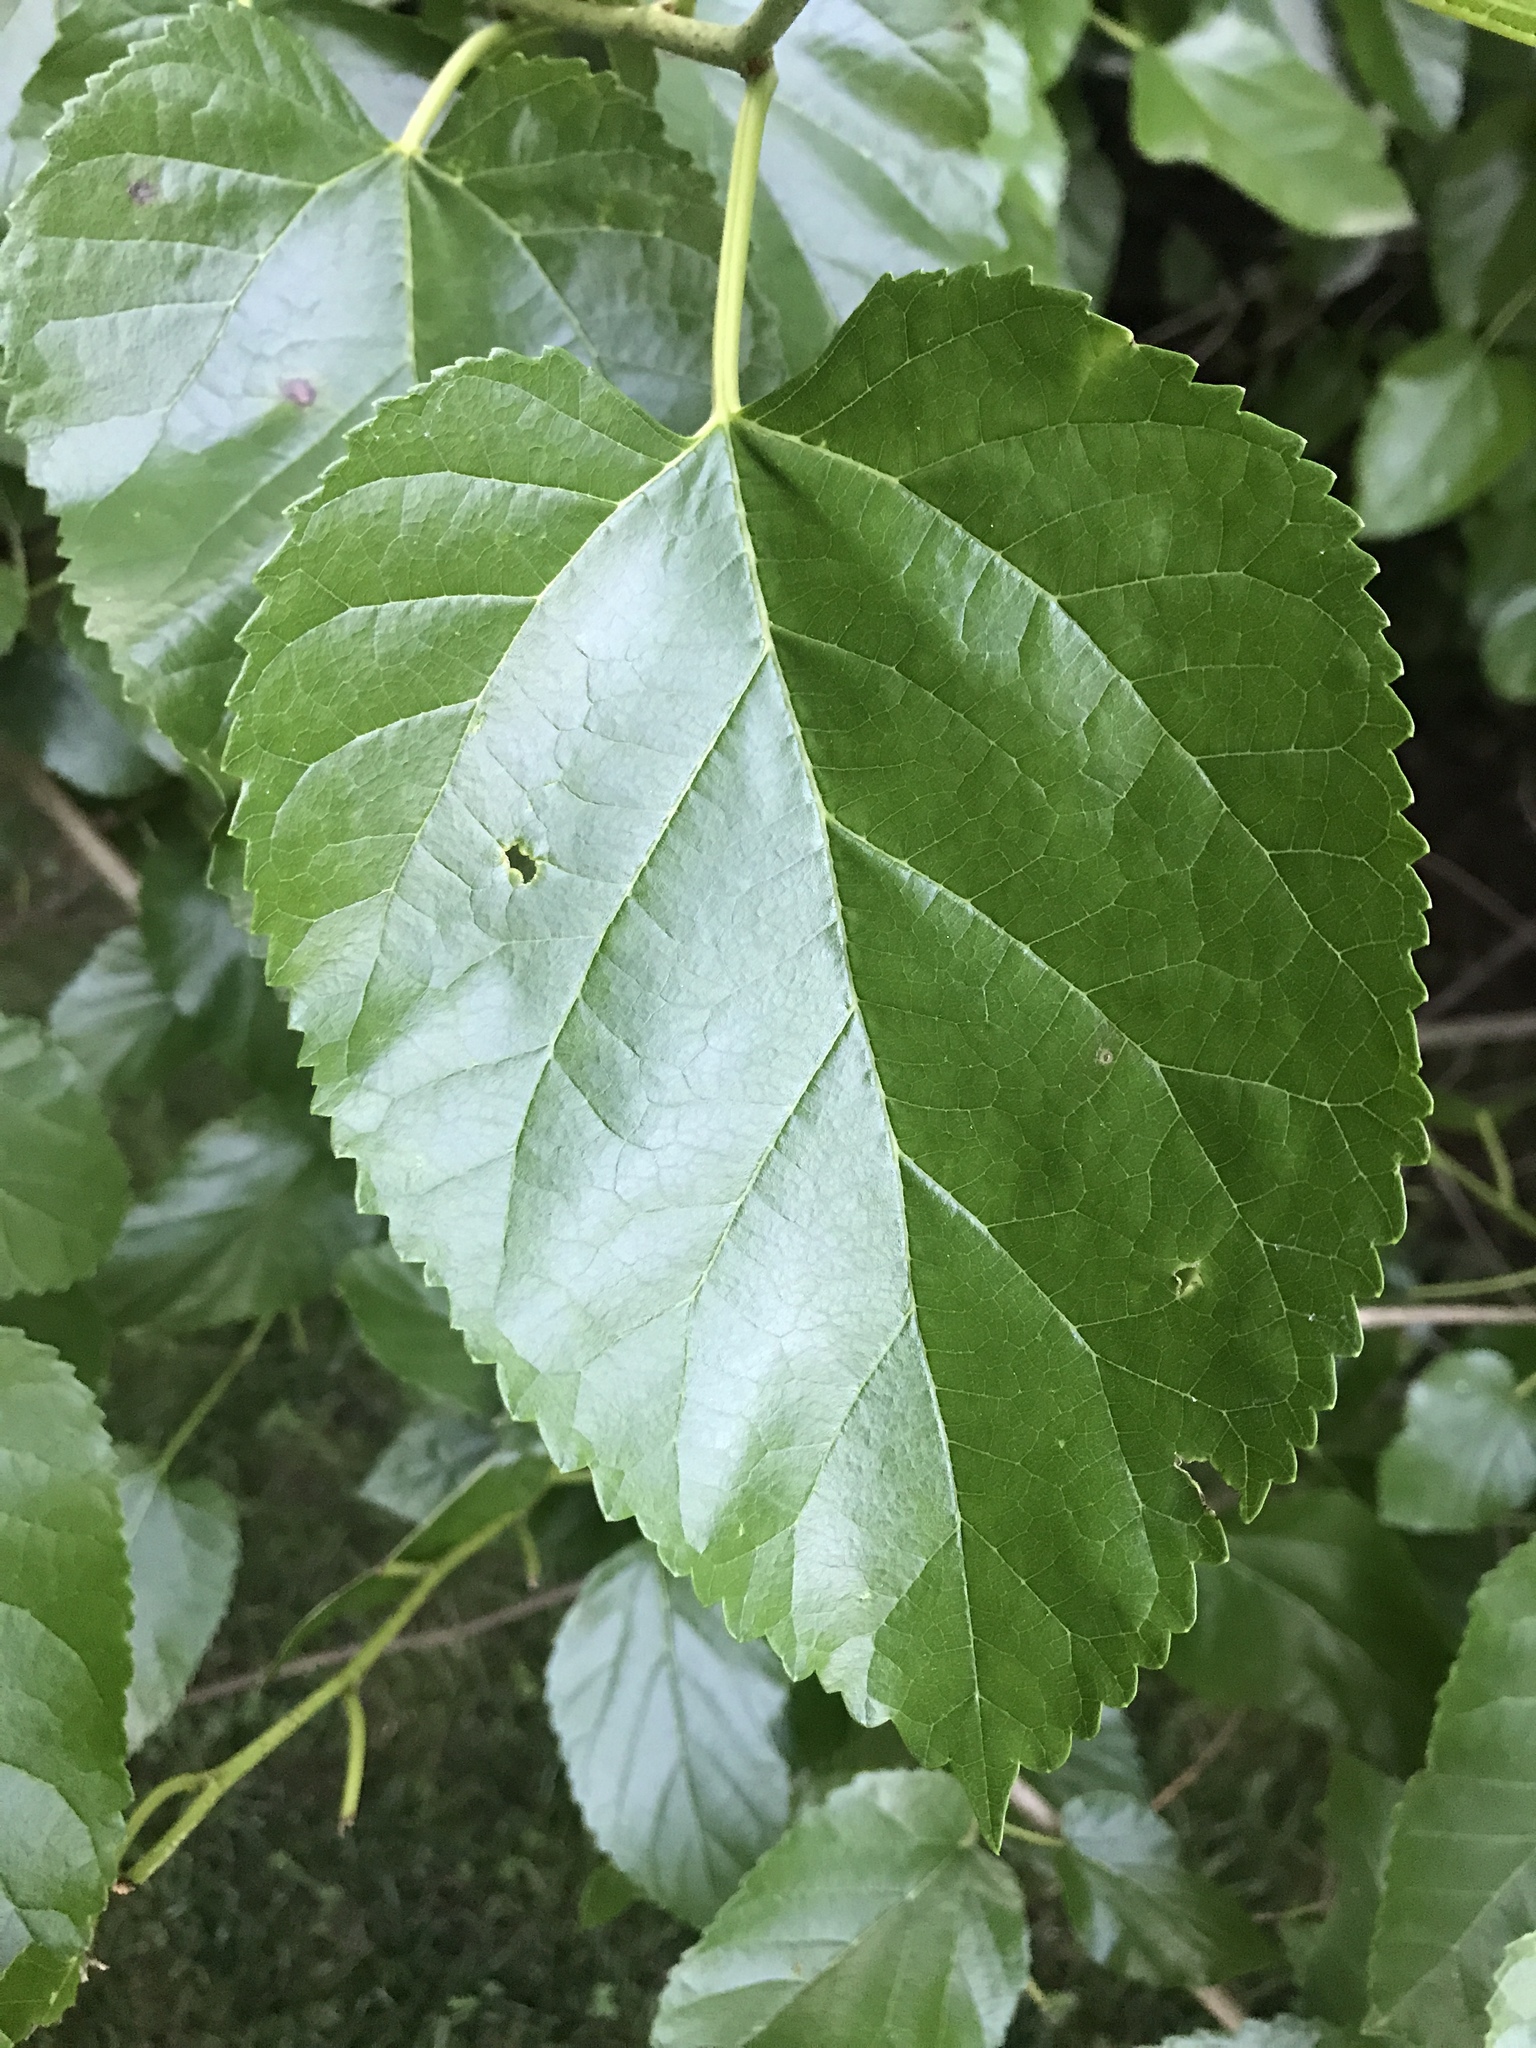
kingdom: Plantae
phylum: Tracheophyta
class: Magnoliopsida
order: Rosales
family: Moraceae
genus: Morus
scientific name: Morus alba
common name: White mulberry
